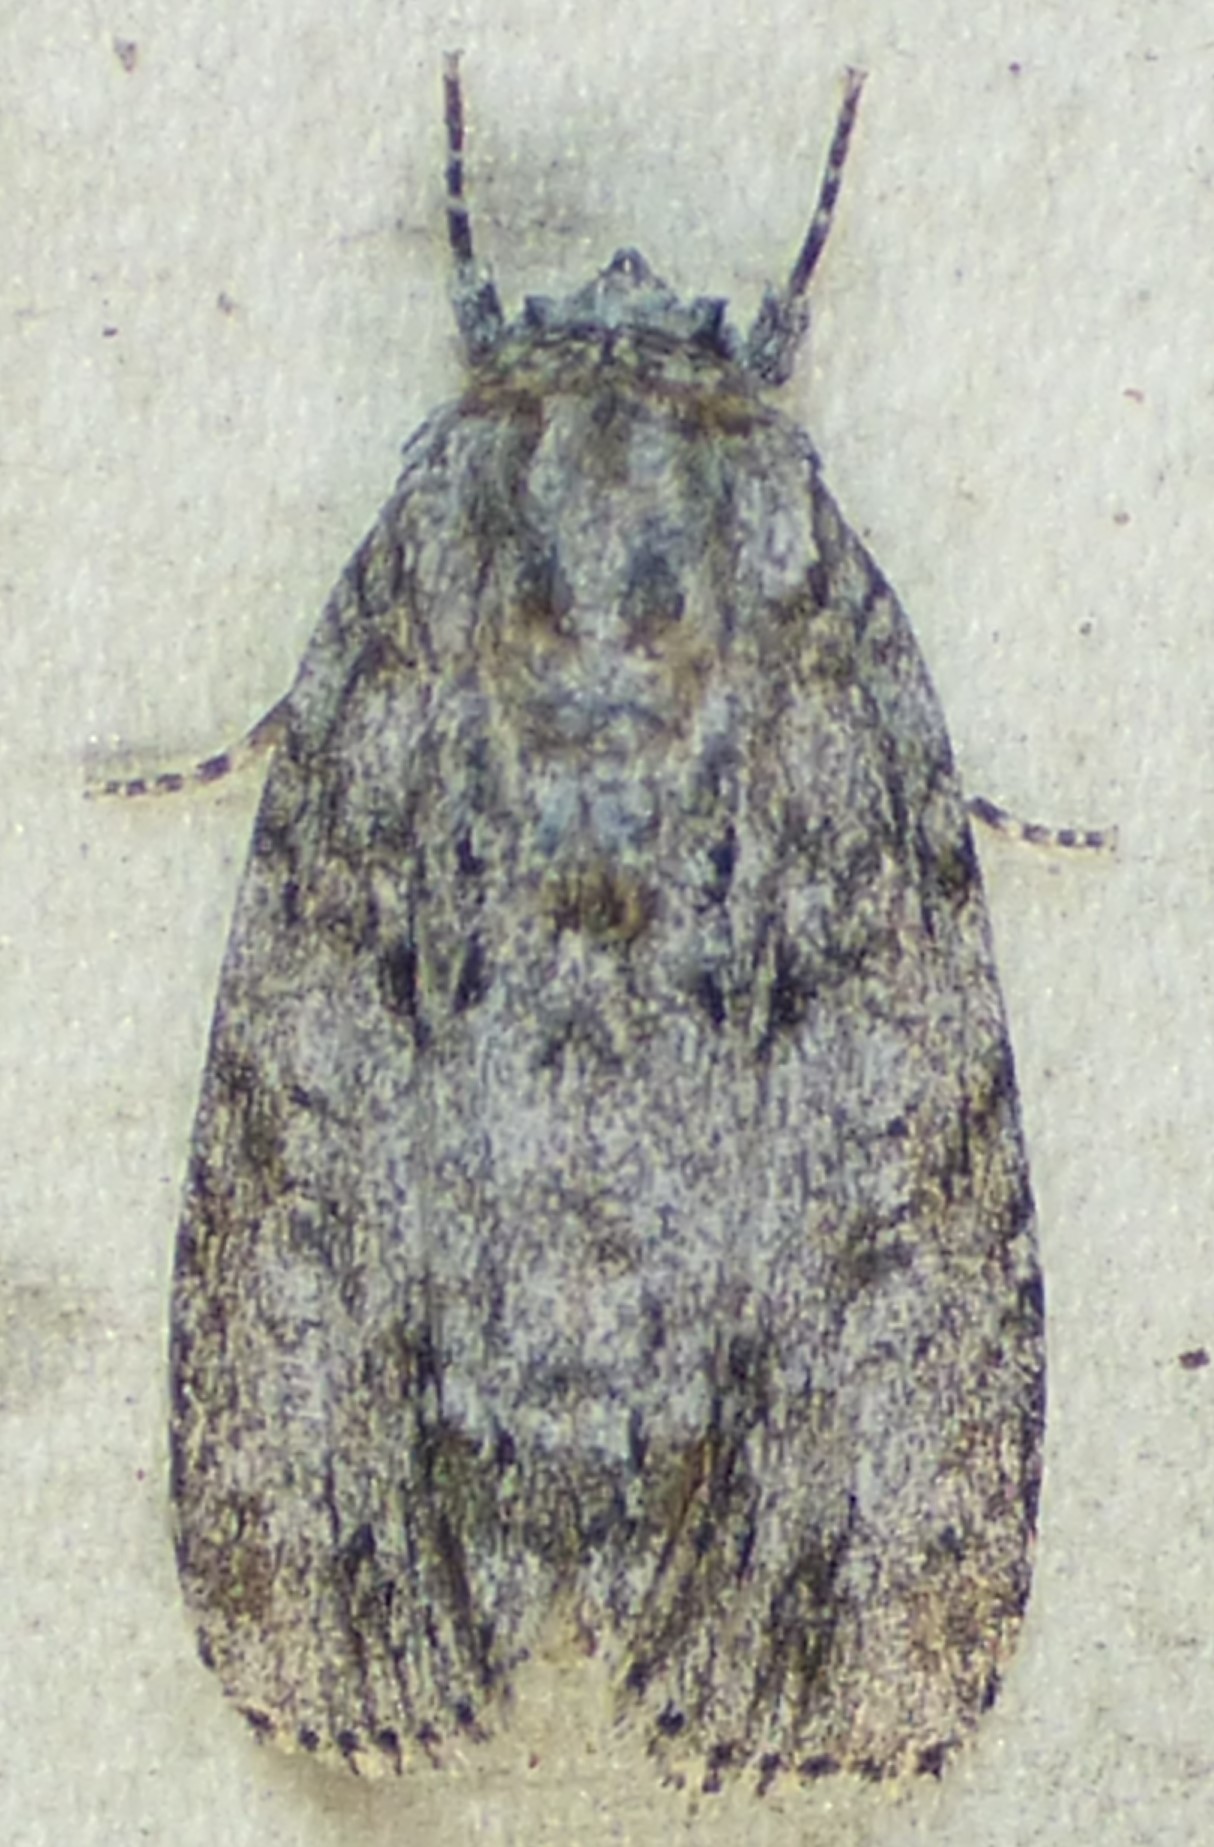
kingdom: Animalia
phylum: Arthropoda
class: Insecta
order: Lepidoptera
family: Noctuidae
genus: Acronicta
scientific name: Acronicta retardata
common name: Maple dagger
